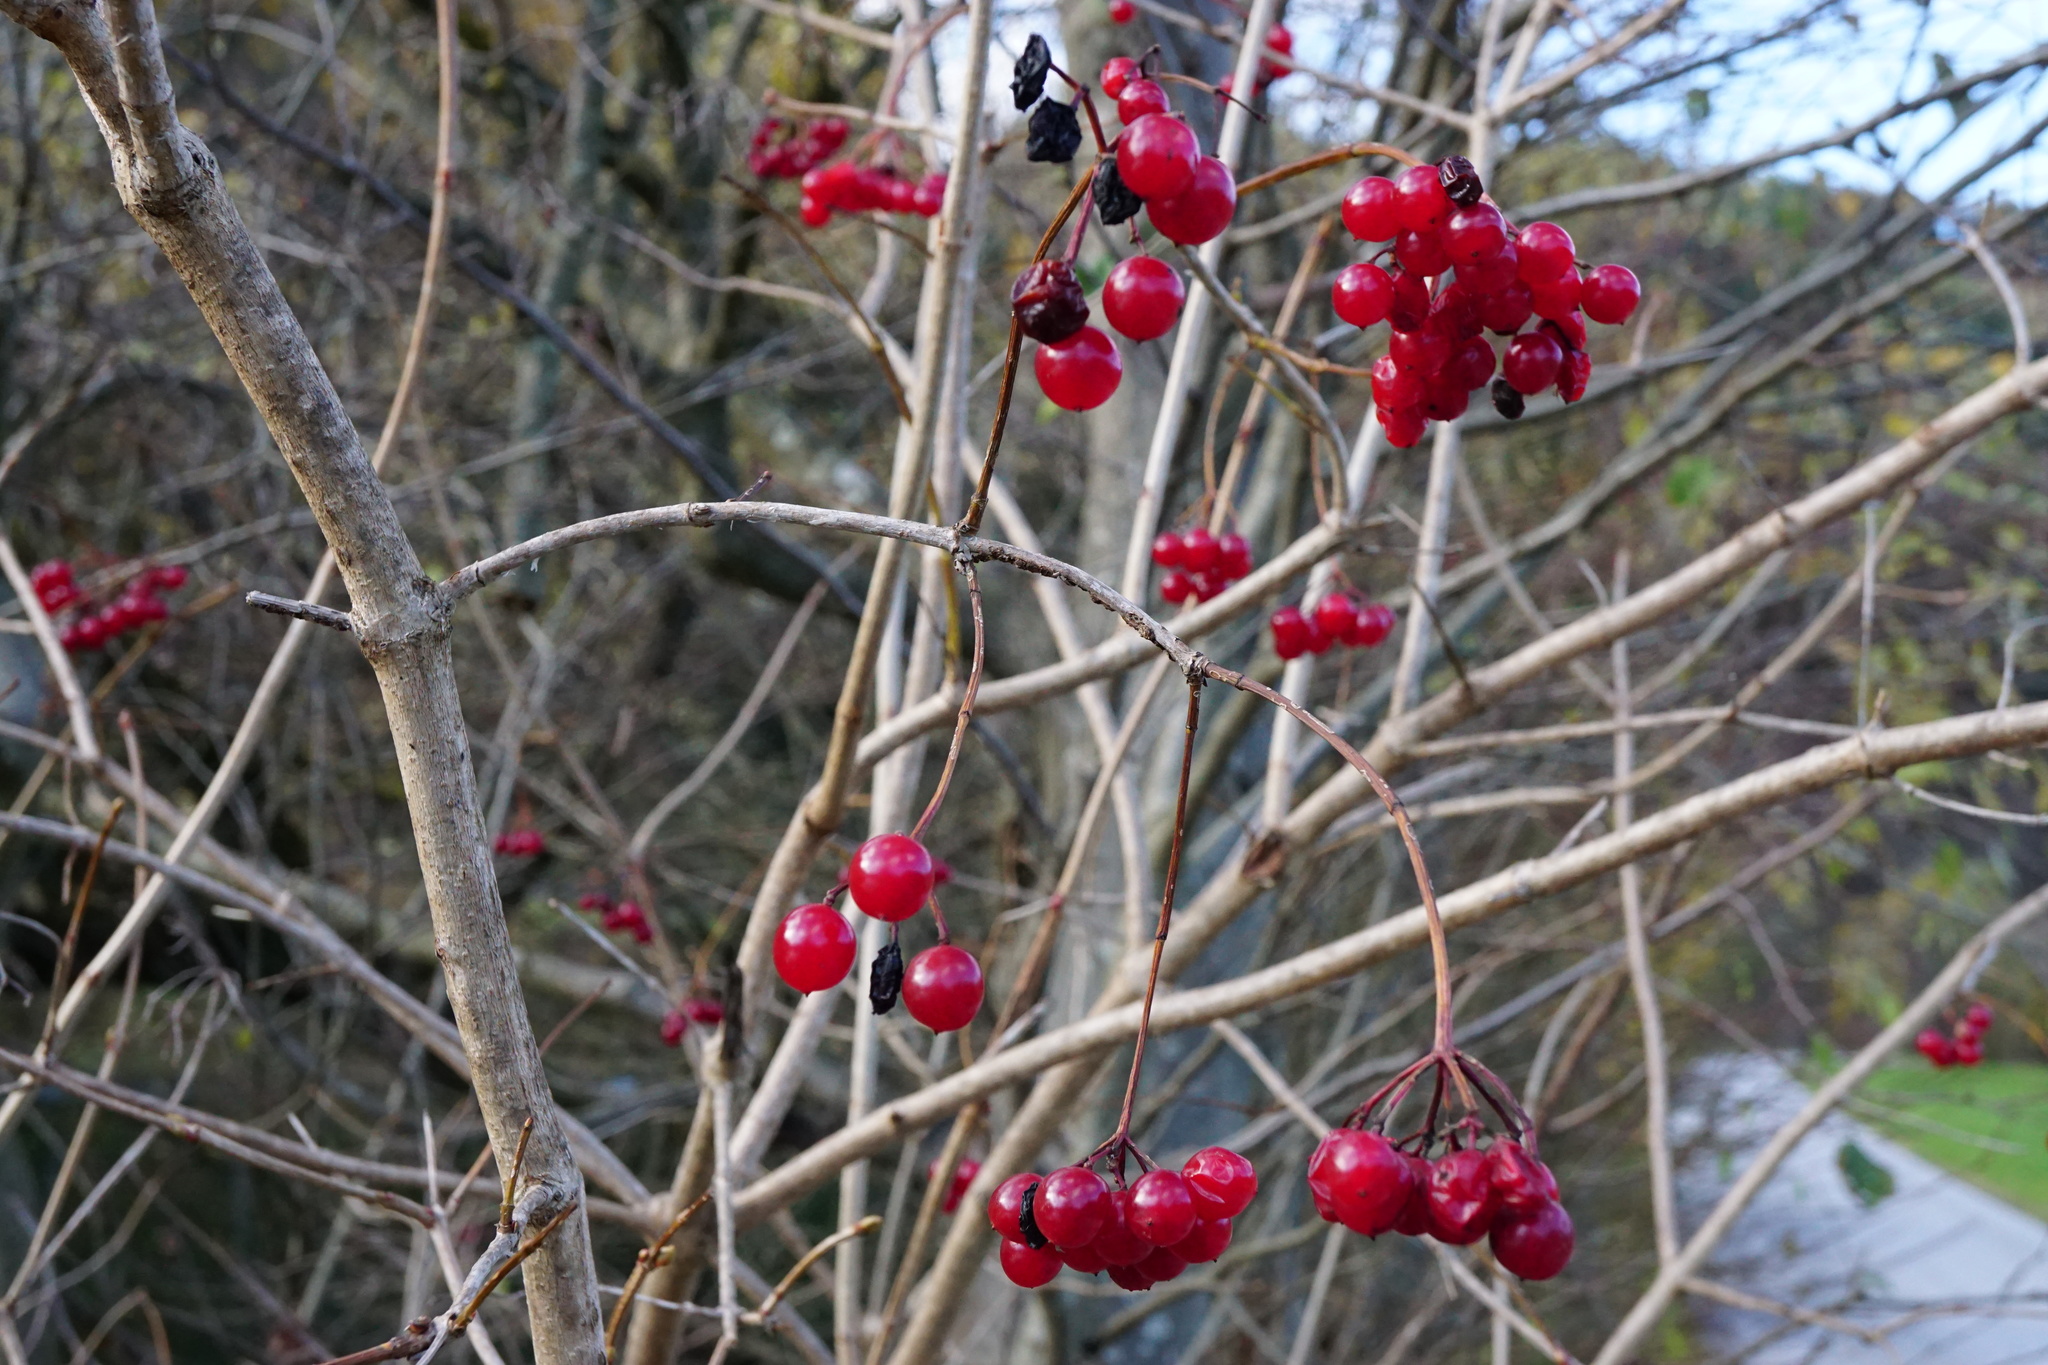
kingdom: Plantae
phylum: Tracheophyta
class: Magnoliopsida
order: Dipsacales
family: Viburnaceae
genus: Viburnum
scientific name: Viburnum opulus
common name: Guelder-rose
